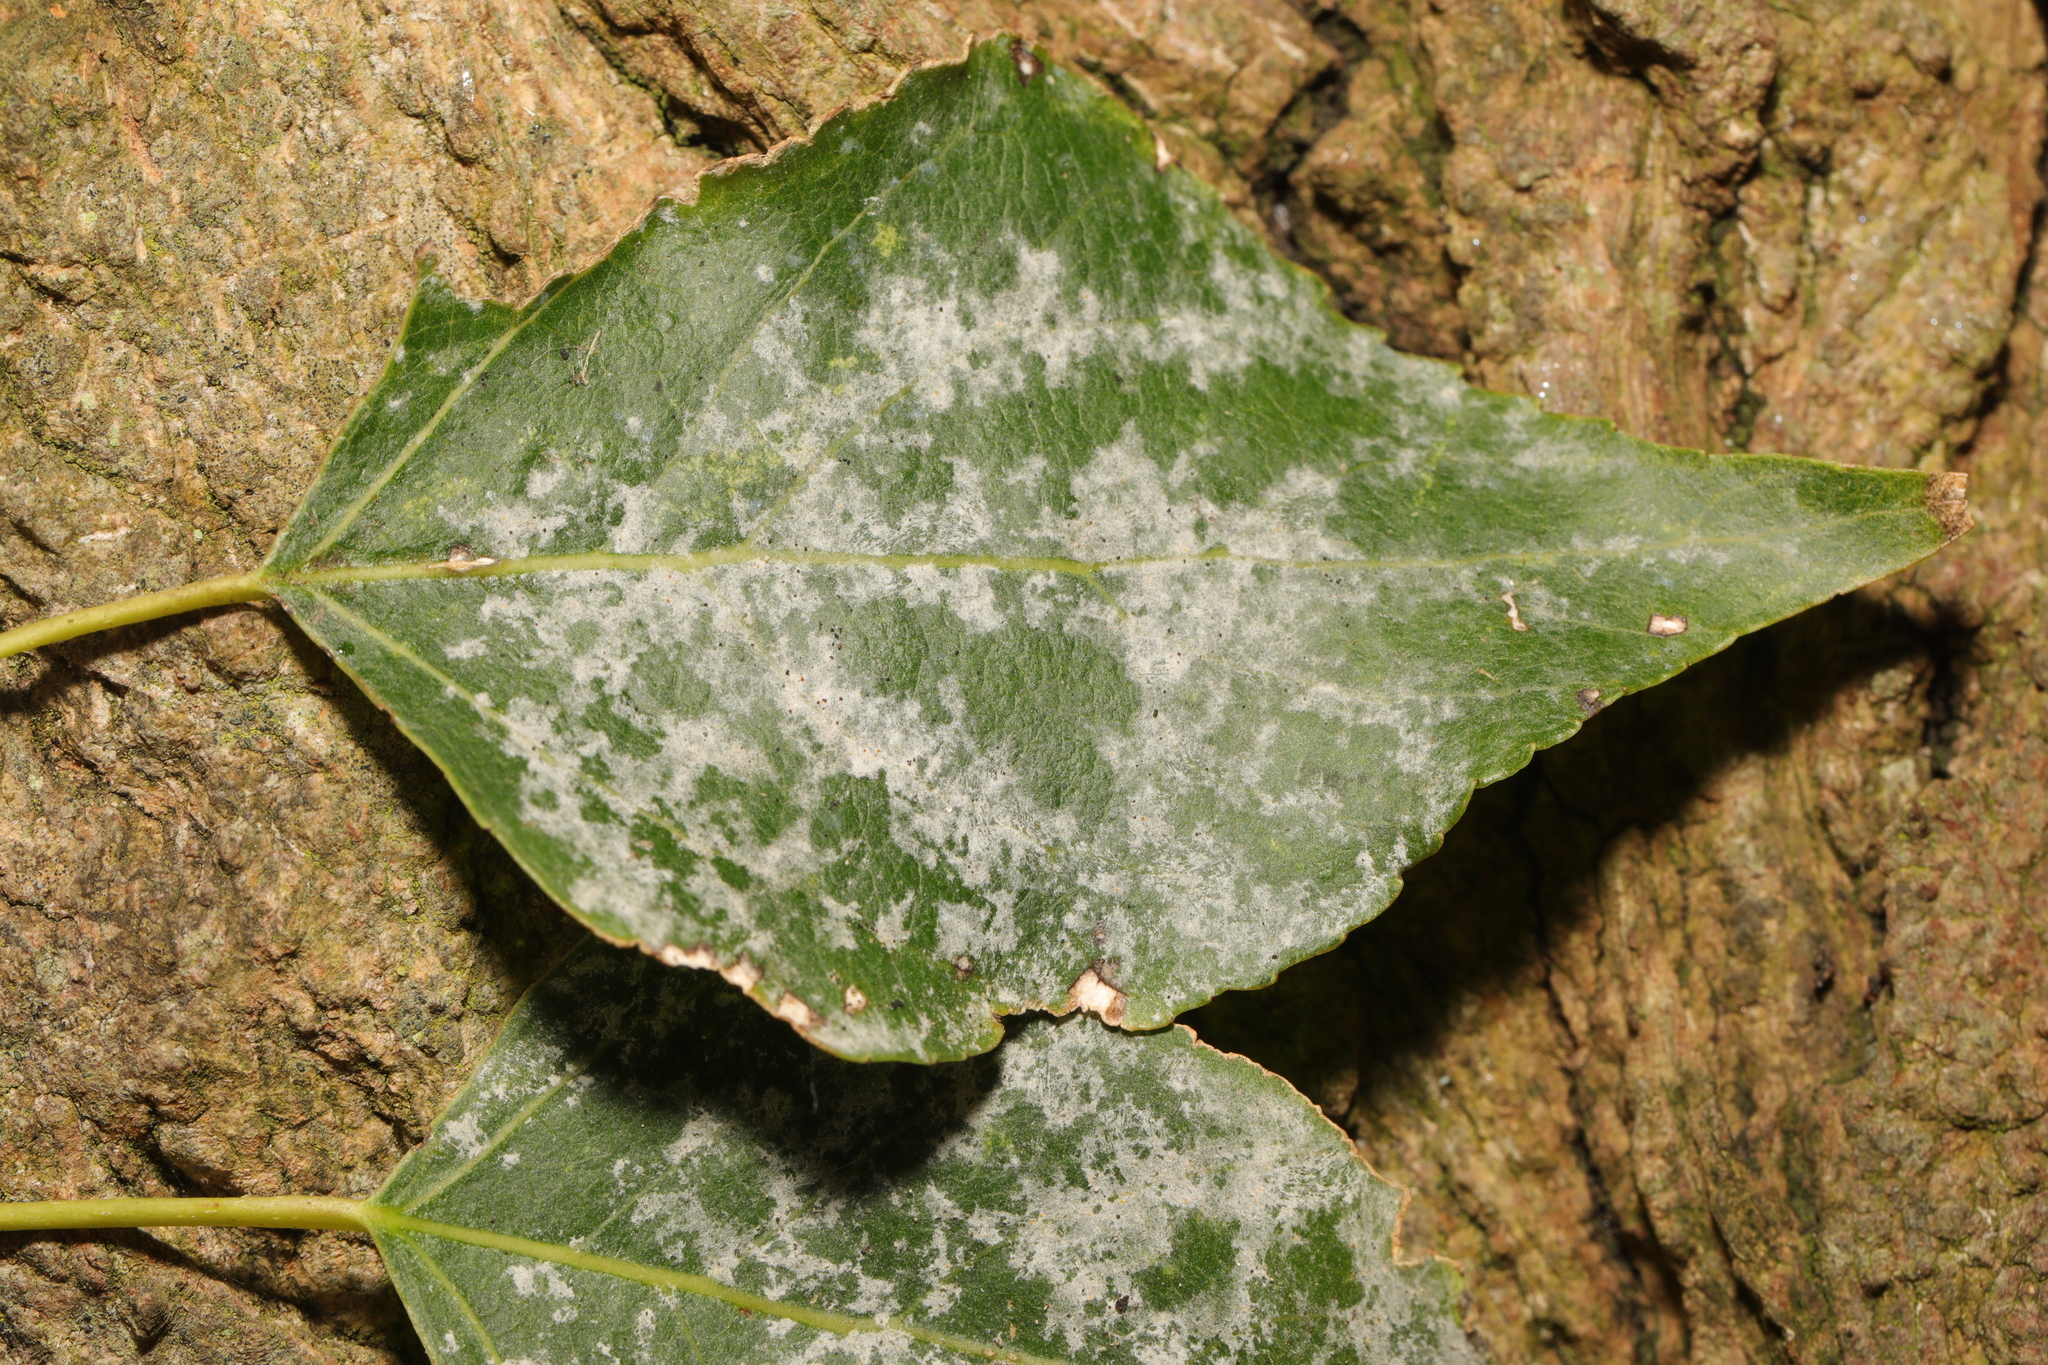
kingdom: Fungi
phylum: Ascomycota
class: Leotiomycetes
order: Helotiales
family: Erysiphaceae
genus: Erysiphe
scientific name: Erysiphe adunca
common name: Willow mildew
